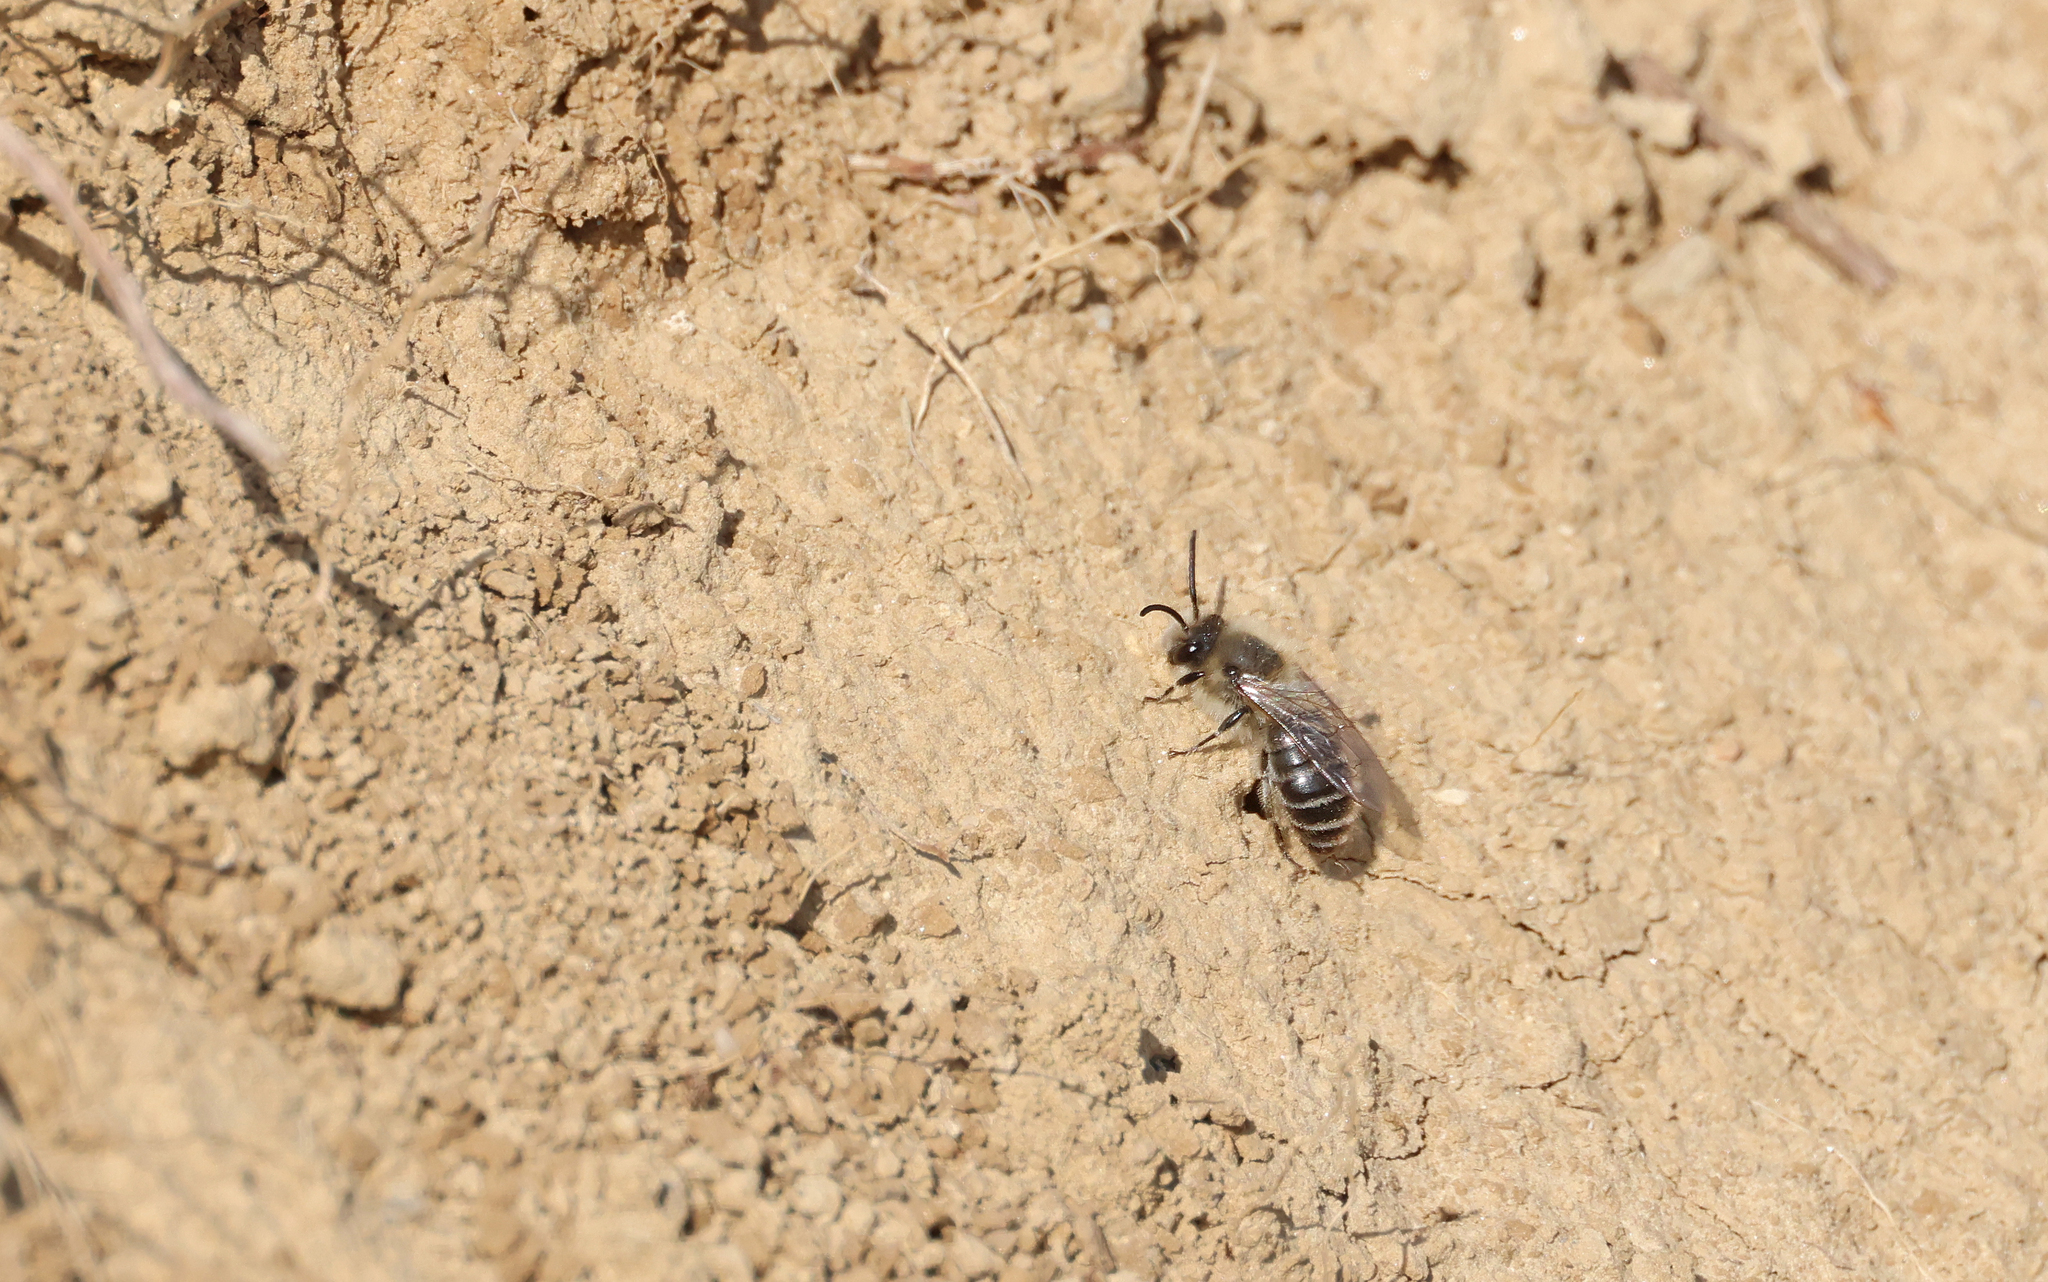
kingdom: Animalia
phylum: Arthropoda
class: Insecta
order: Hymenoptera
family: Colletidae
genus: Colletes
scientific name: Colletes cunicularius
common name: Early colletes
